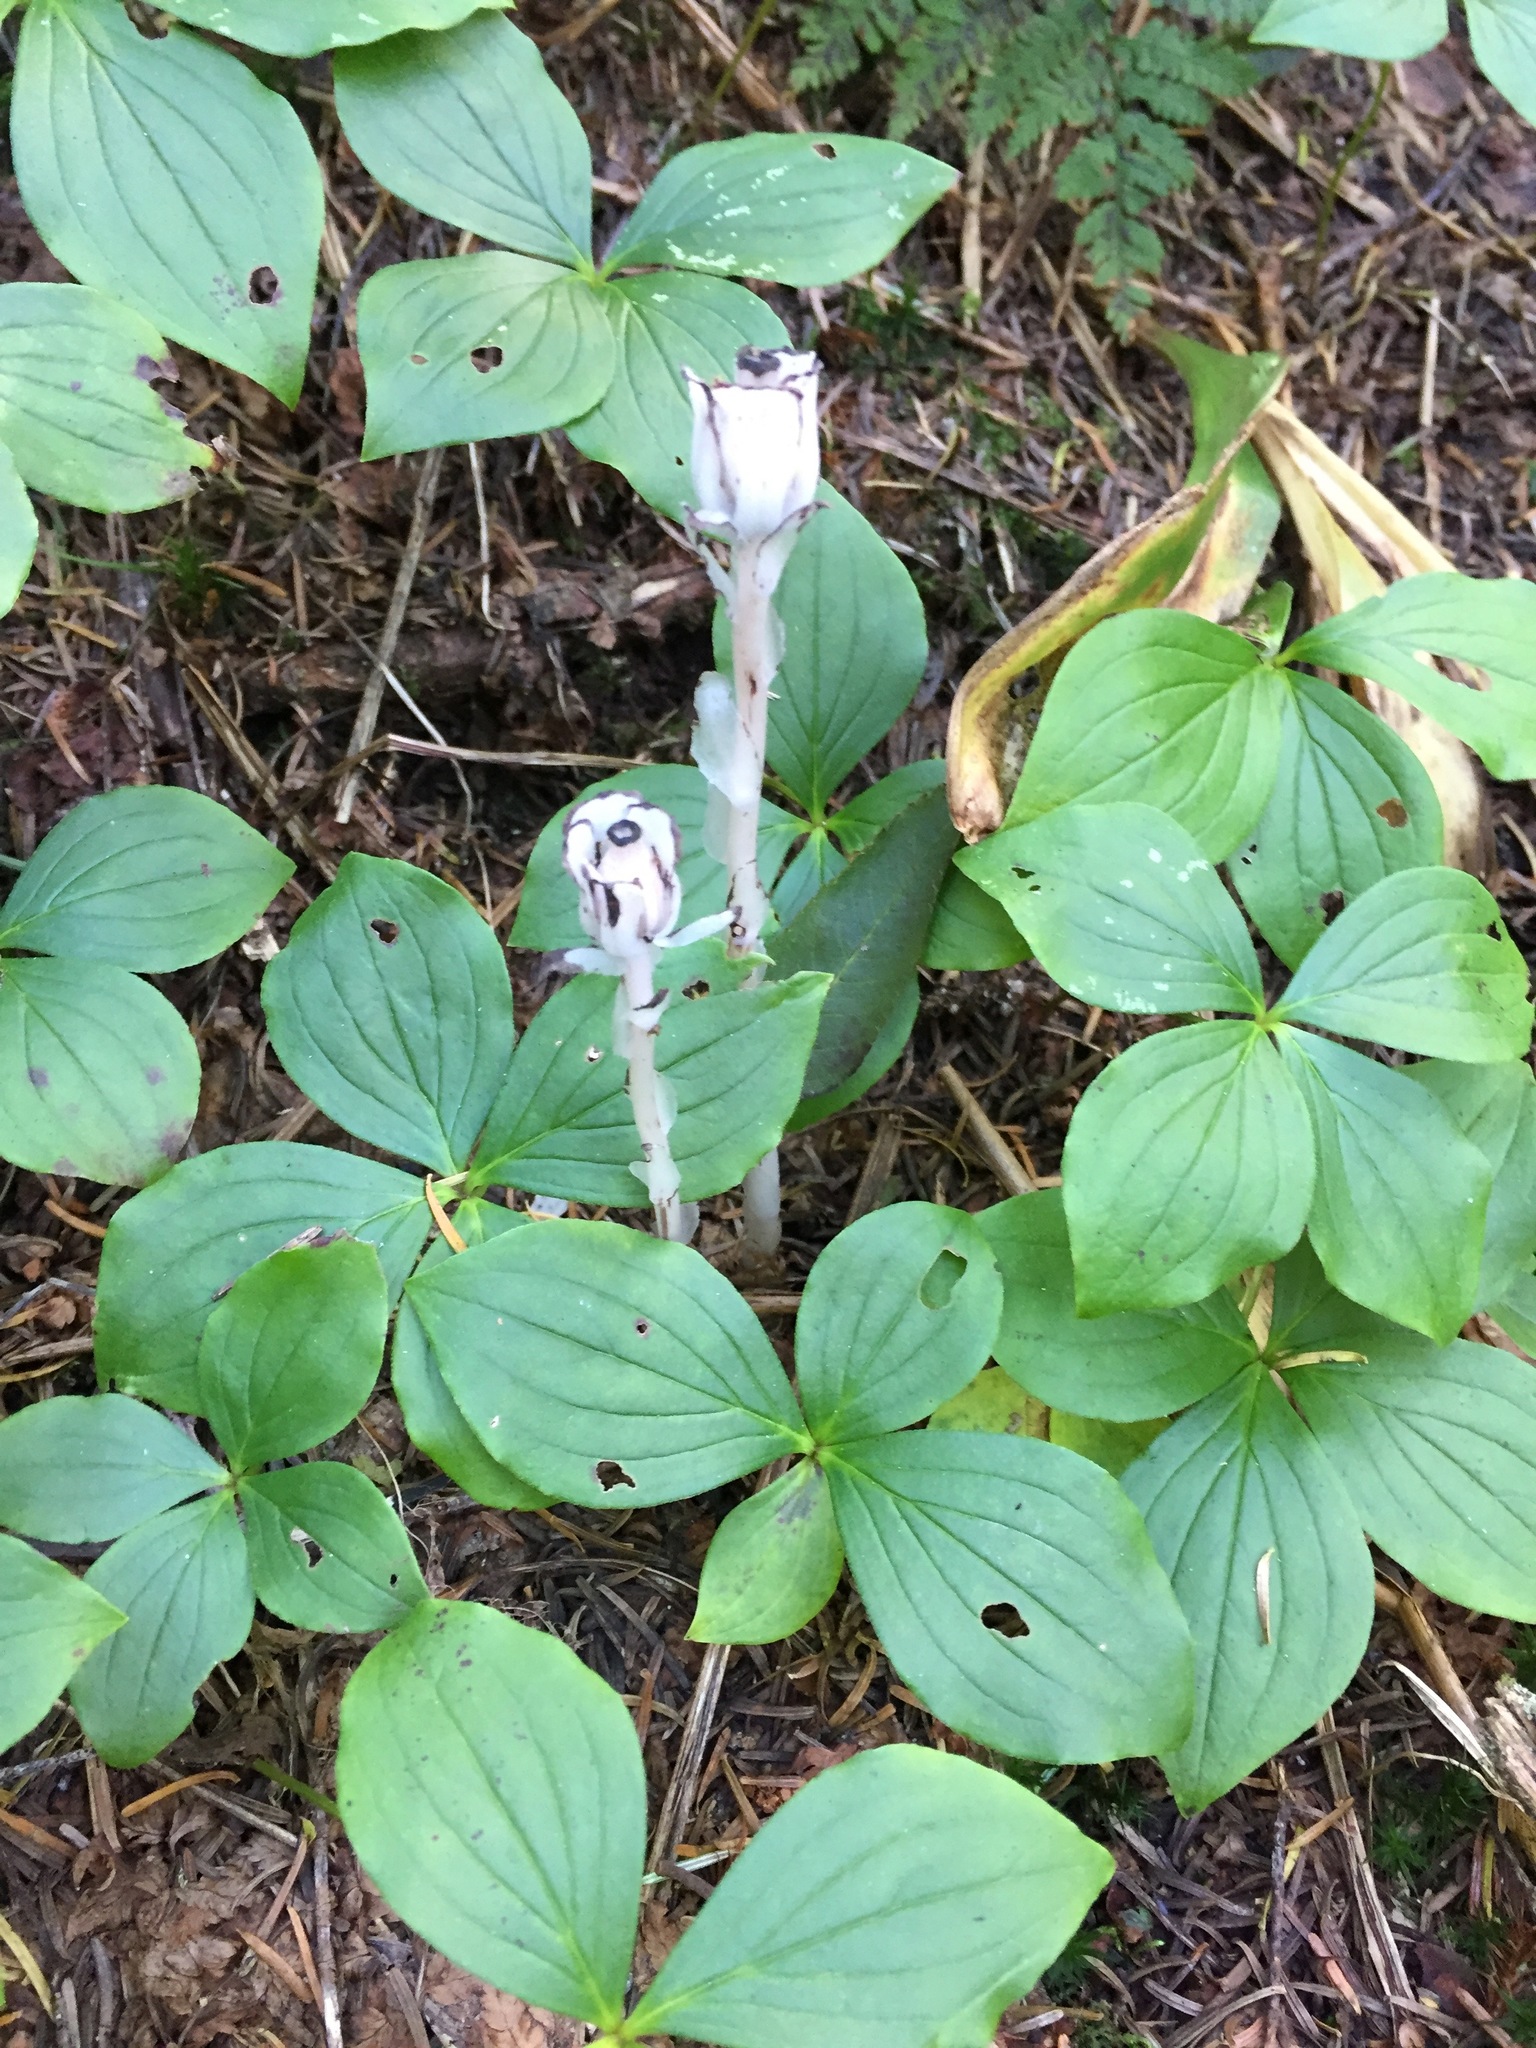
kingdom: Plantae
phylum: Tracheophyta
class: Magnoliopsida
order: Ericales
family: Ericaceae
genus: Monotropa
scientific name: Monotropa uniflora
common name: Convulsion root
